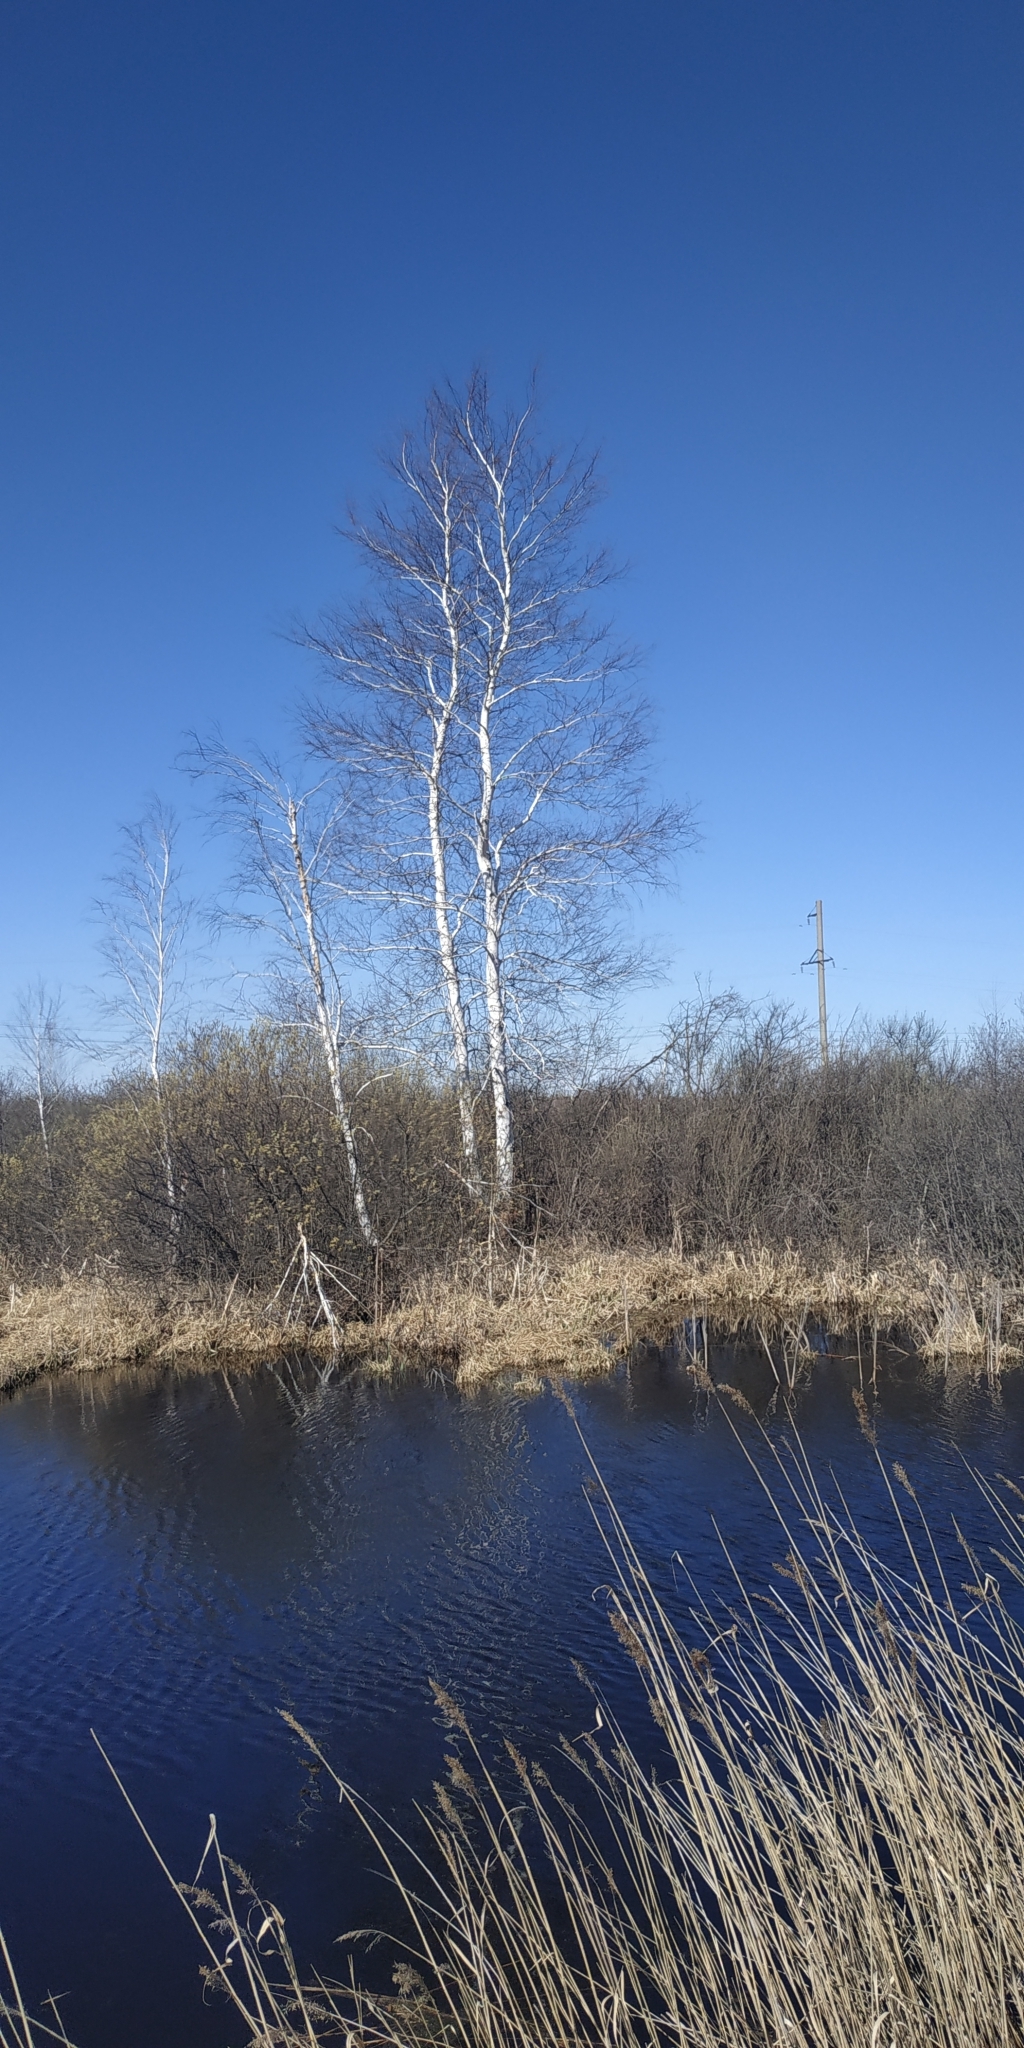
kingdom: Plantae
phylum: Tracheophyta
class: Magnoliopsida
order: Fagales
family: Betulaceae
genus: Betula
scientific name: Betula pendula
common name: Silver birch
